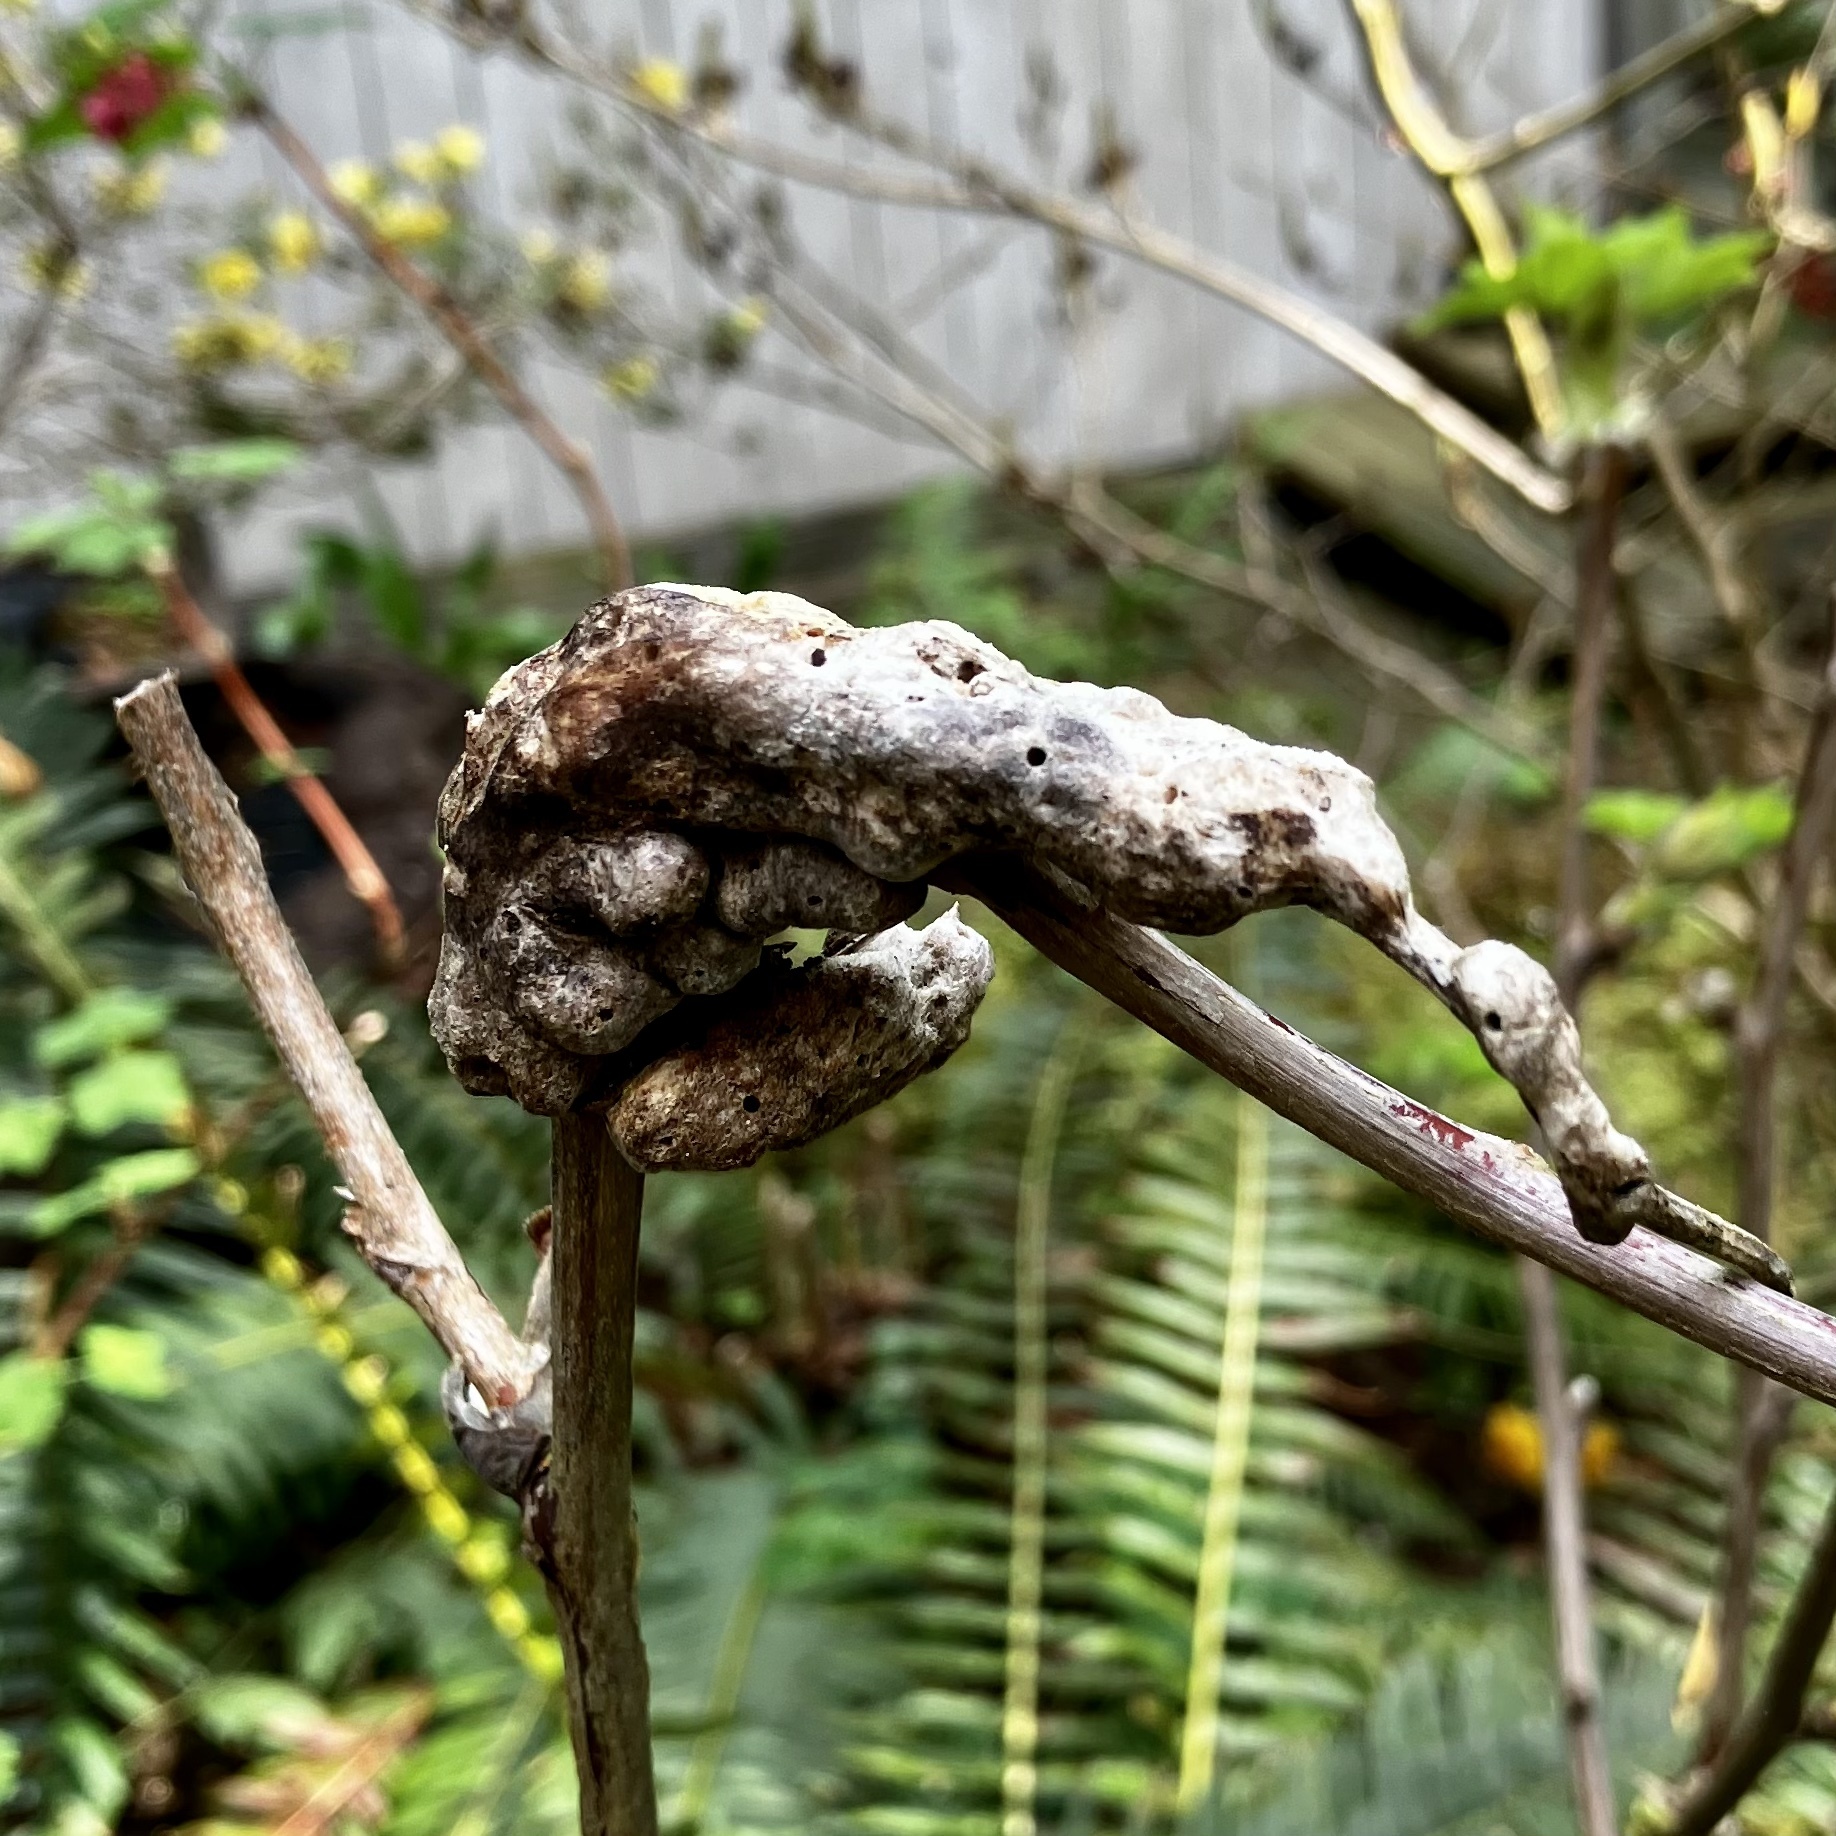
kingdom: Animalia
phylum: Arthropoda
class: Insecta
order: Hymenoptera
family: Cynipidae
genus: Diastrophus
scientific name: Diastrophus
